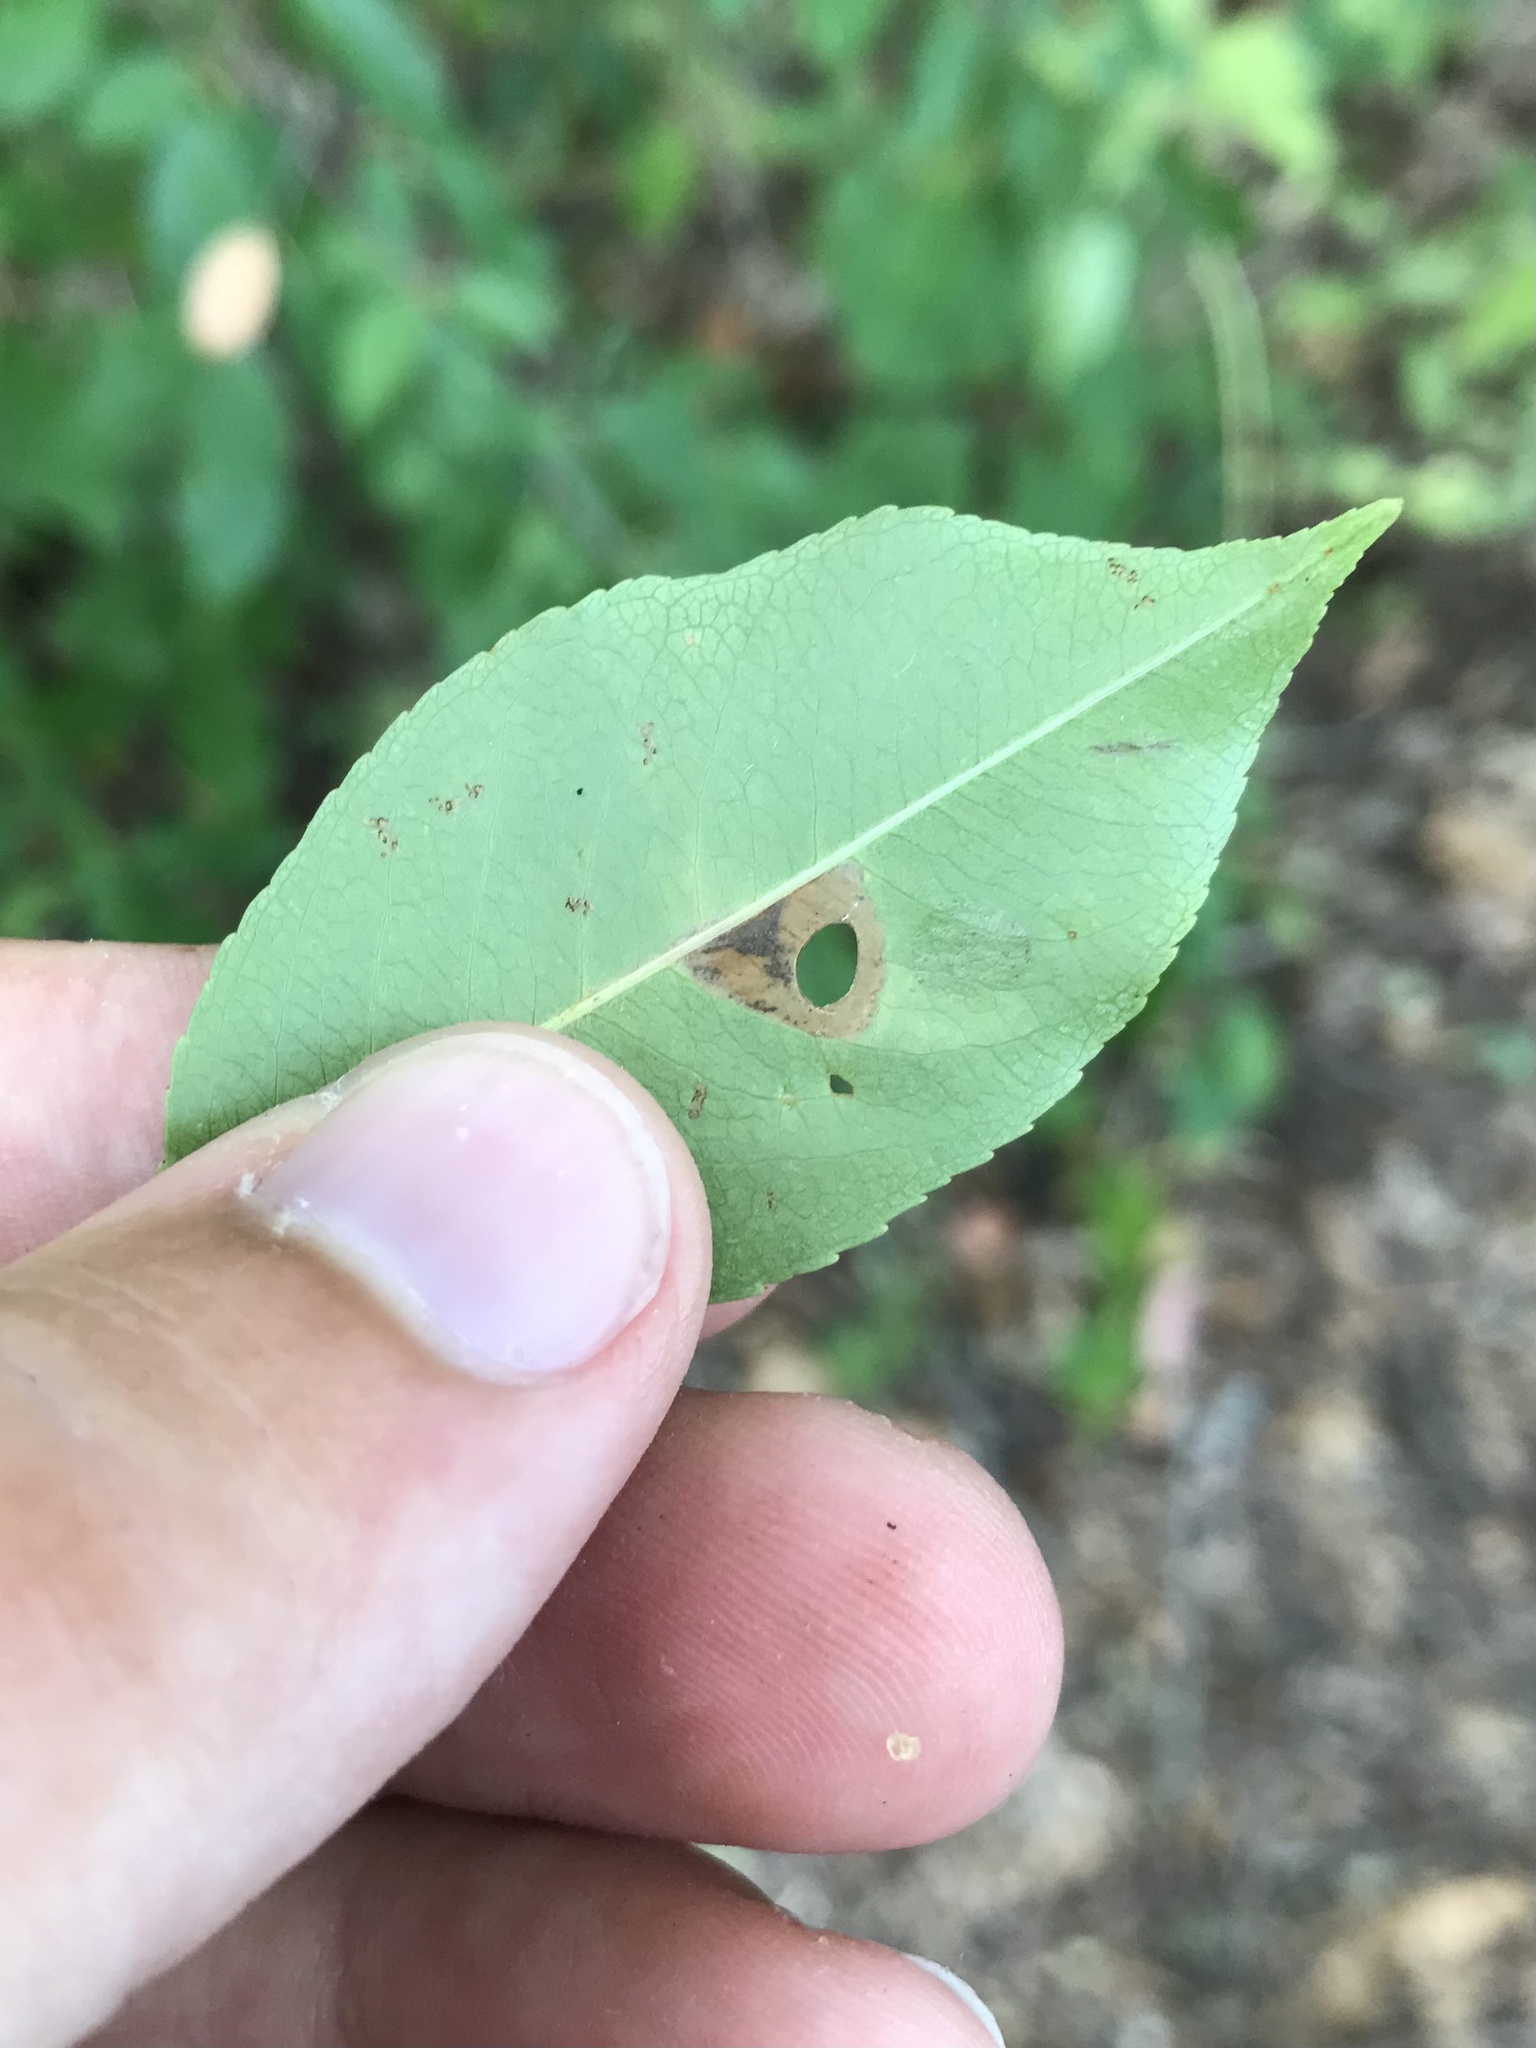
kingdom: Animalia
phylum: Arthropoda
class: Insecta
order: Lepidoptera
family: Heliozelidae
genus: Coptodisca
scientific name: Coptodisca splendoriferella
